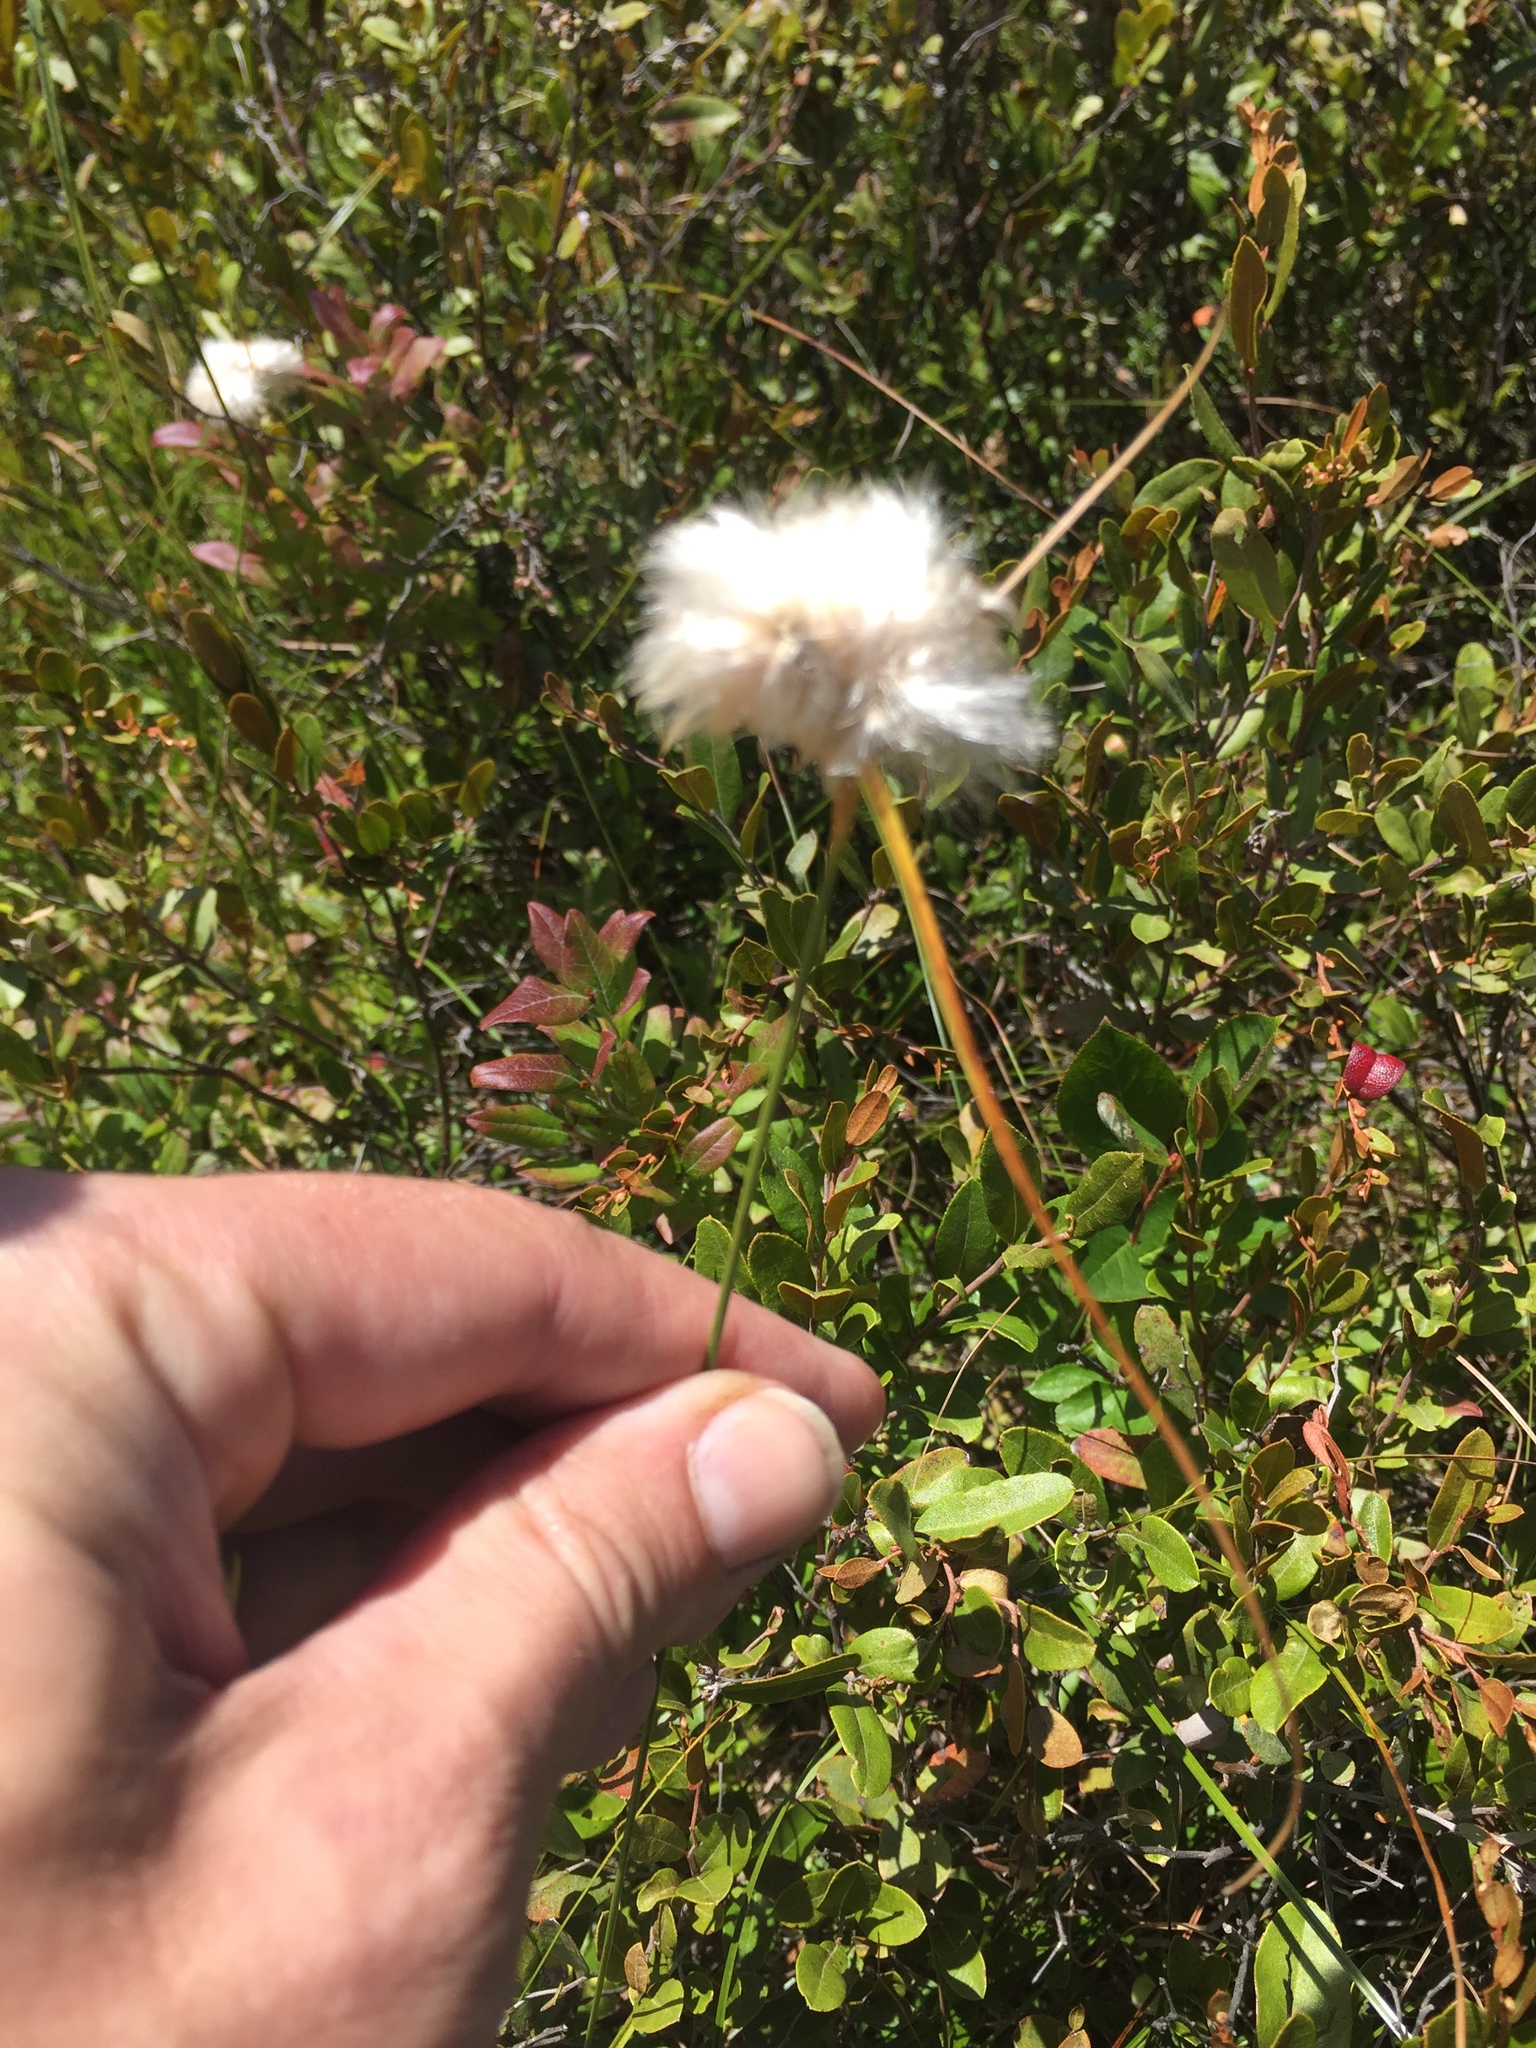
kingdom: Plantae
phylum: Tracheophyta
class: Liliopsida
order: Poales
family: Cyperaceae
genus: Eriophorum
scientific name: Eriophorum virginicum
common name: Tawny cottongrass
